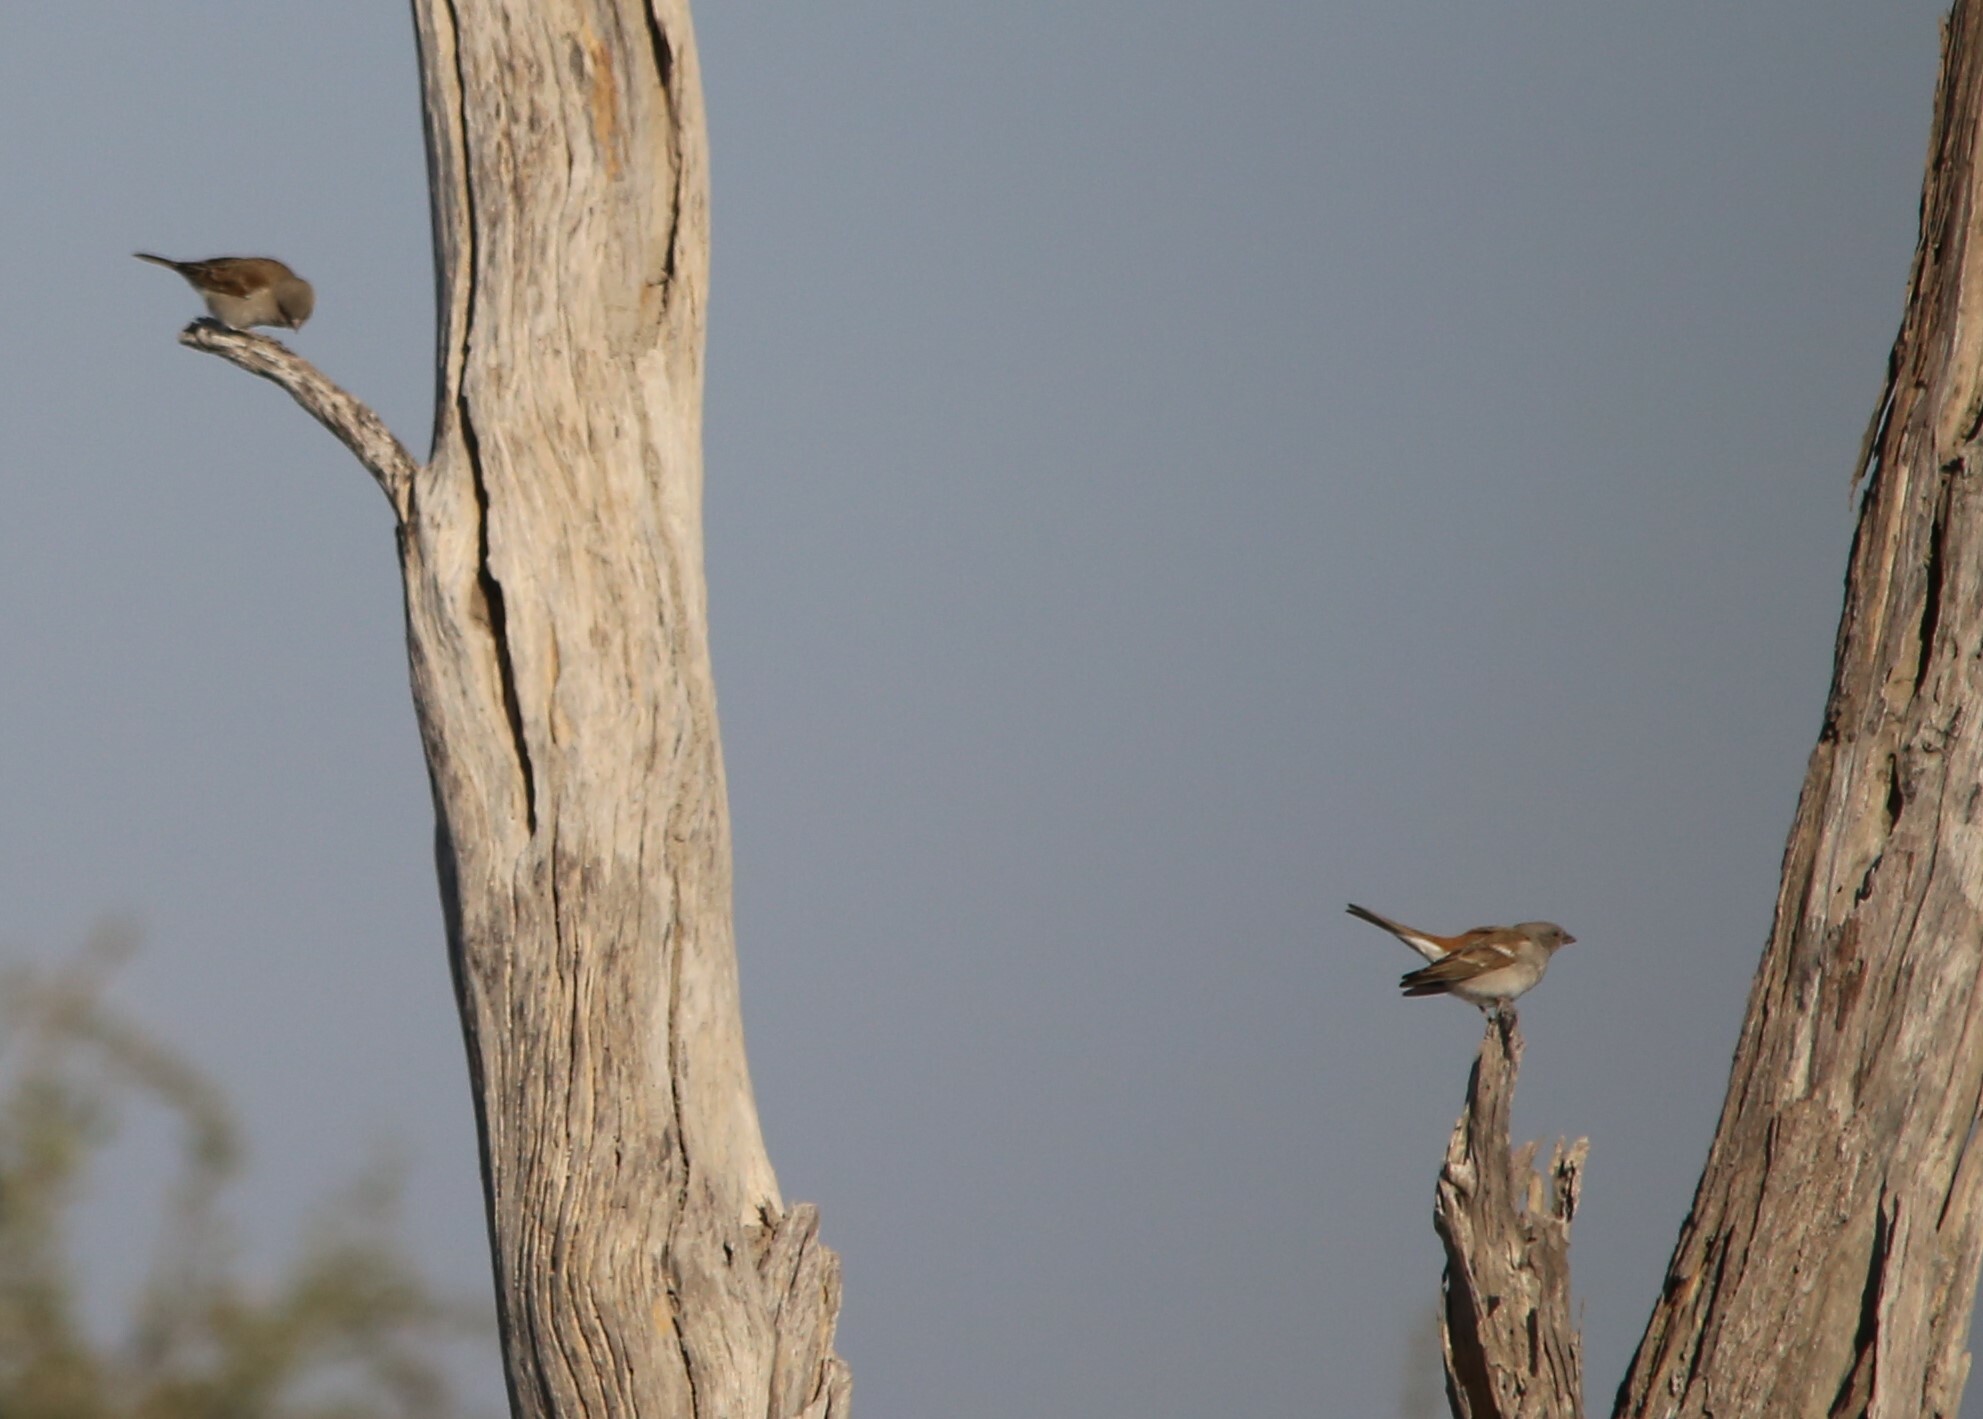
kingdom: Animalia
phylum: Chordata
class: Aves
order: Passeriformes
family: Passeridae
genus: Passer
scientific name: Passer diffusus
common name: Southern grey-headed sparrow
